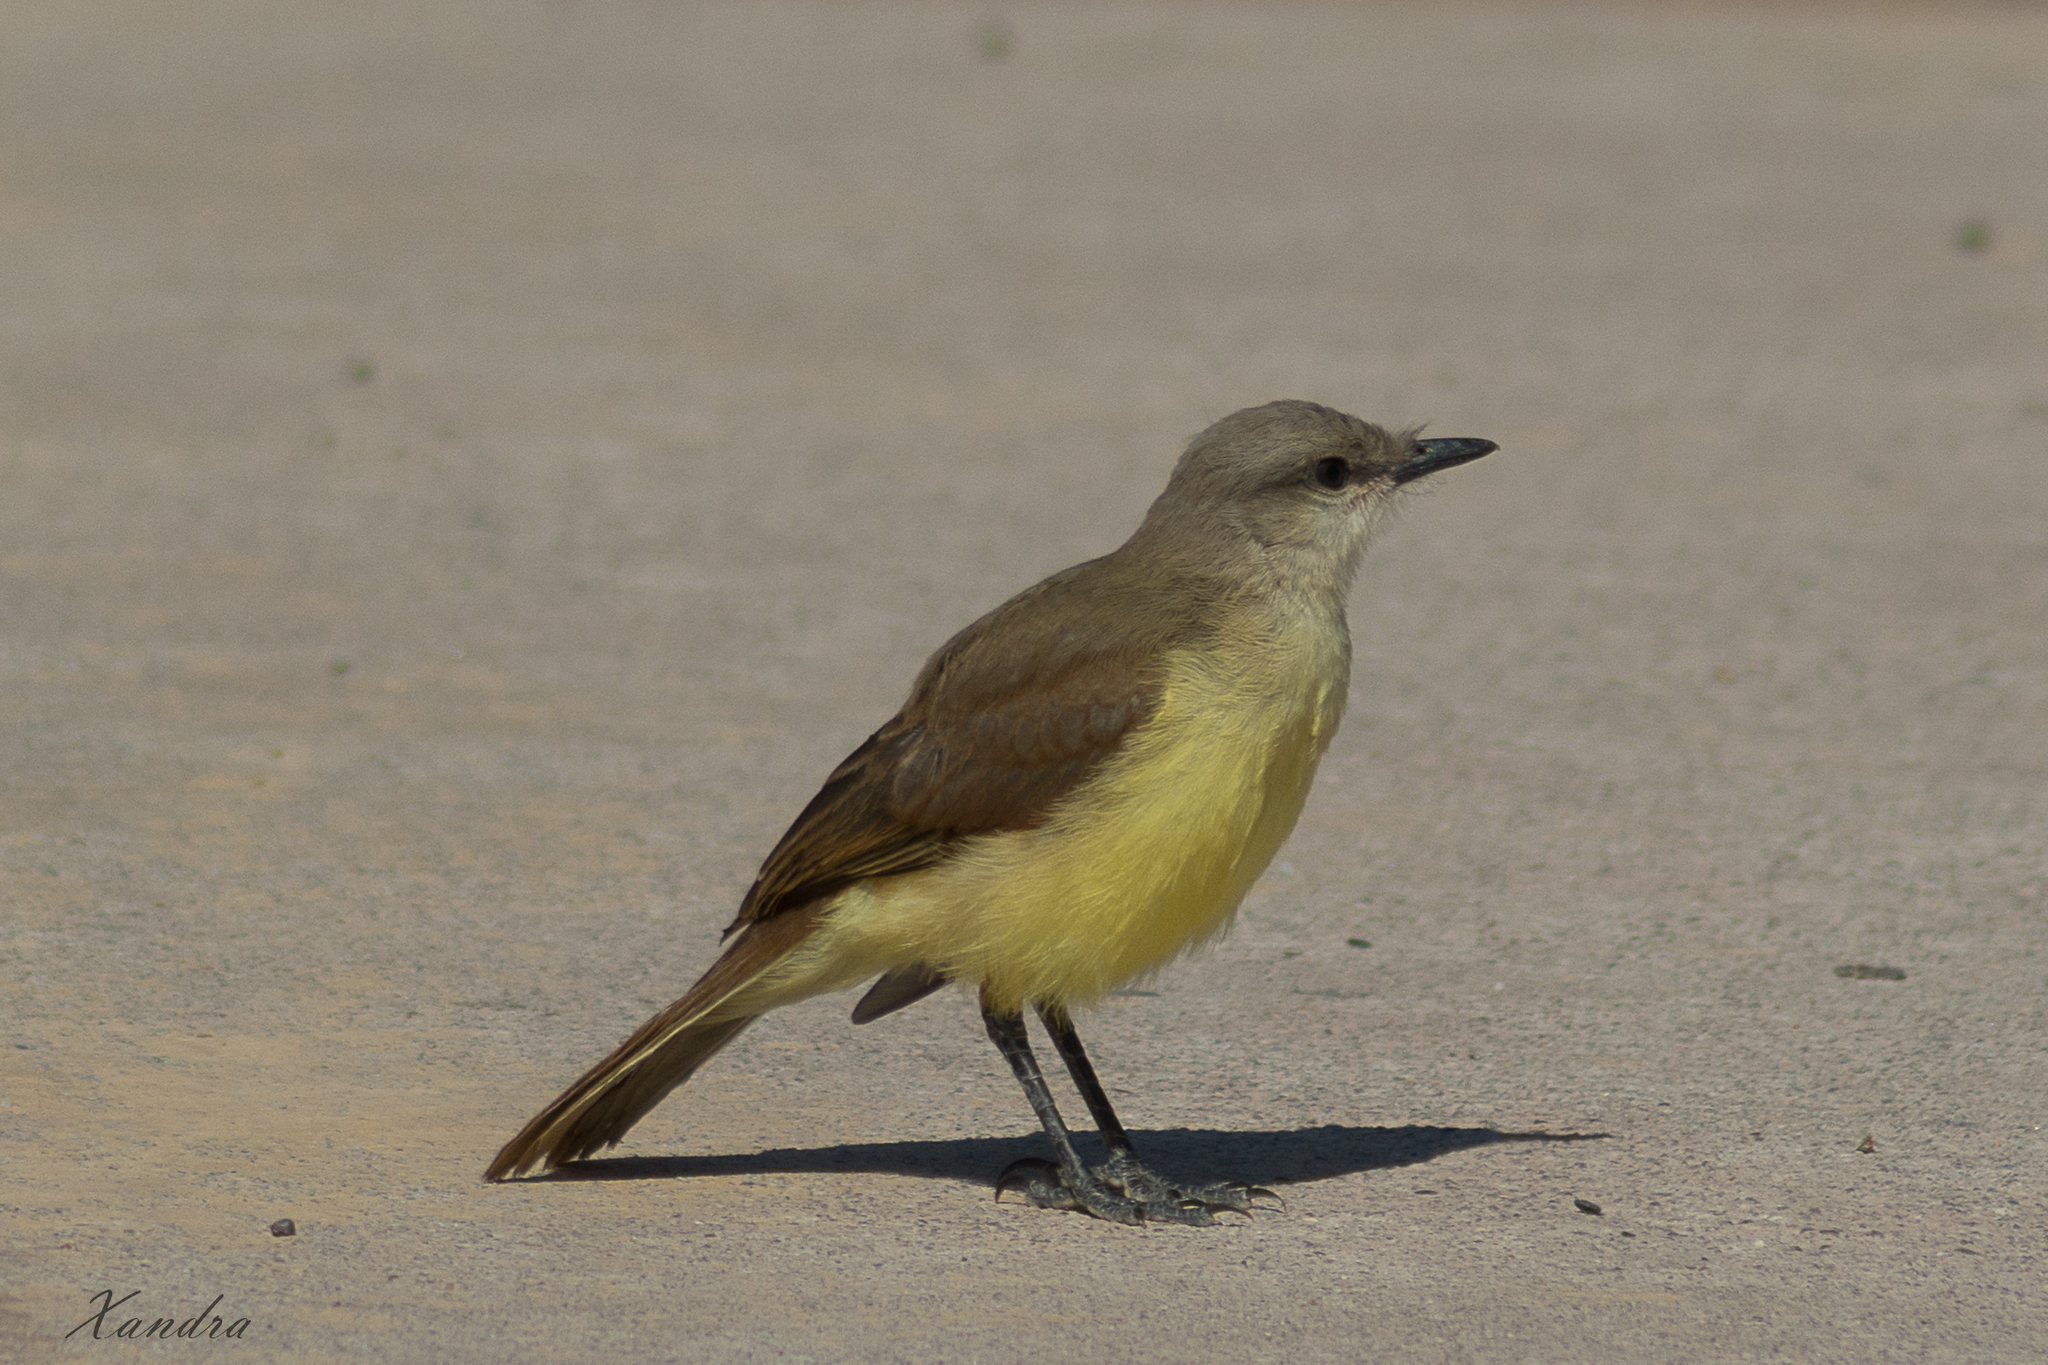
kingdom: Animalia
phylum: Chordata
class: Aves
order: Passeriformes
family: Tyrannidae
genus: Machetornis
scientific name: Machetornis rixosa
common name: Cattle tyrant
